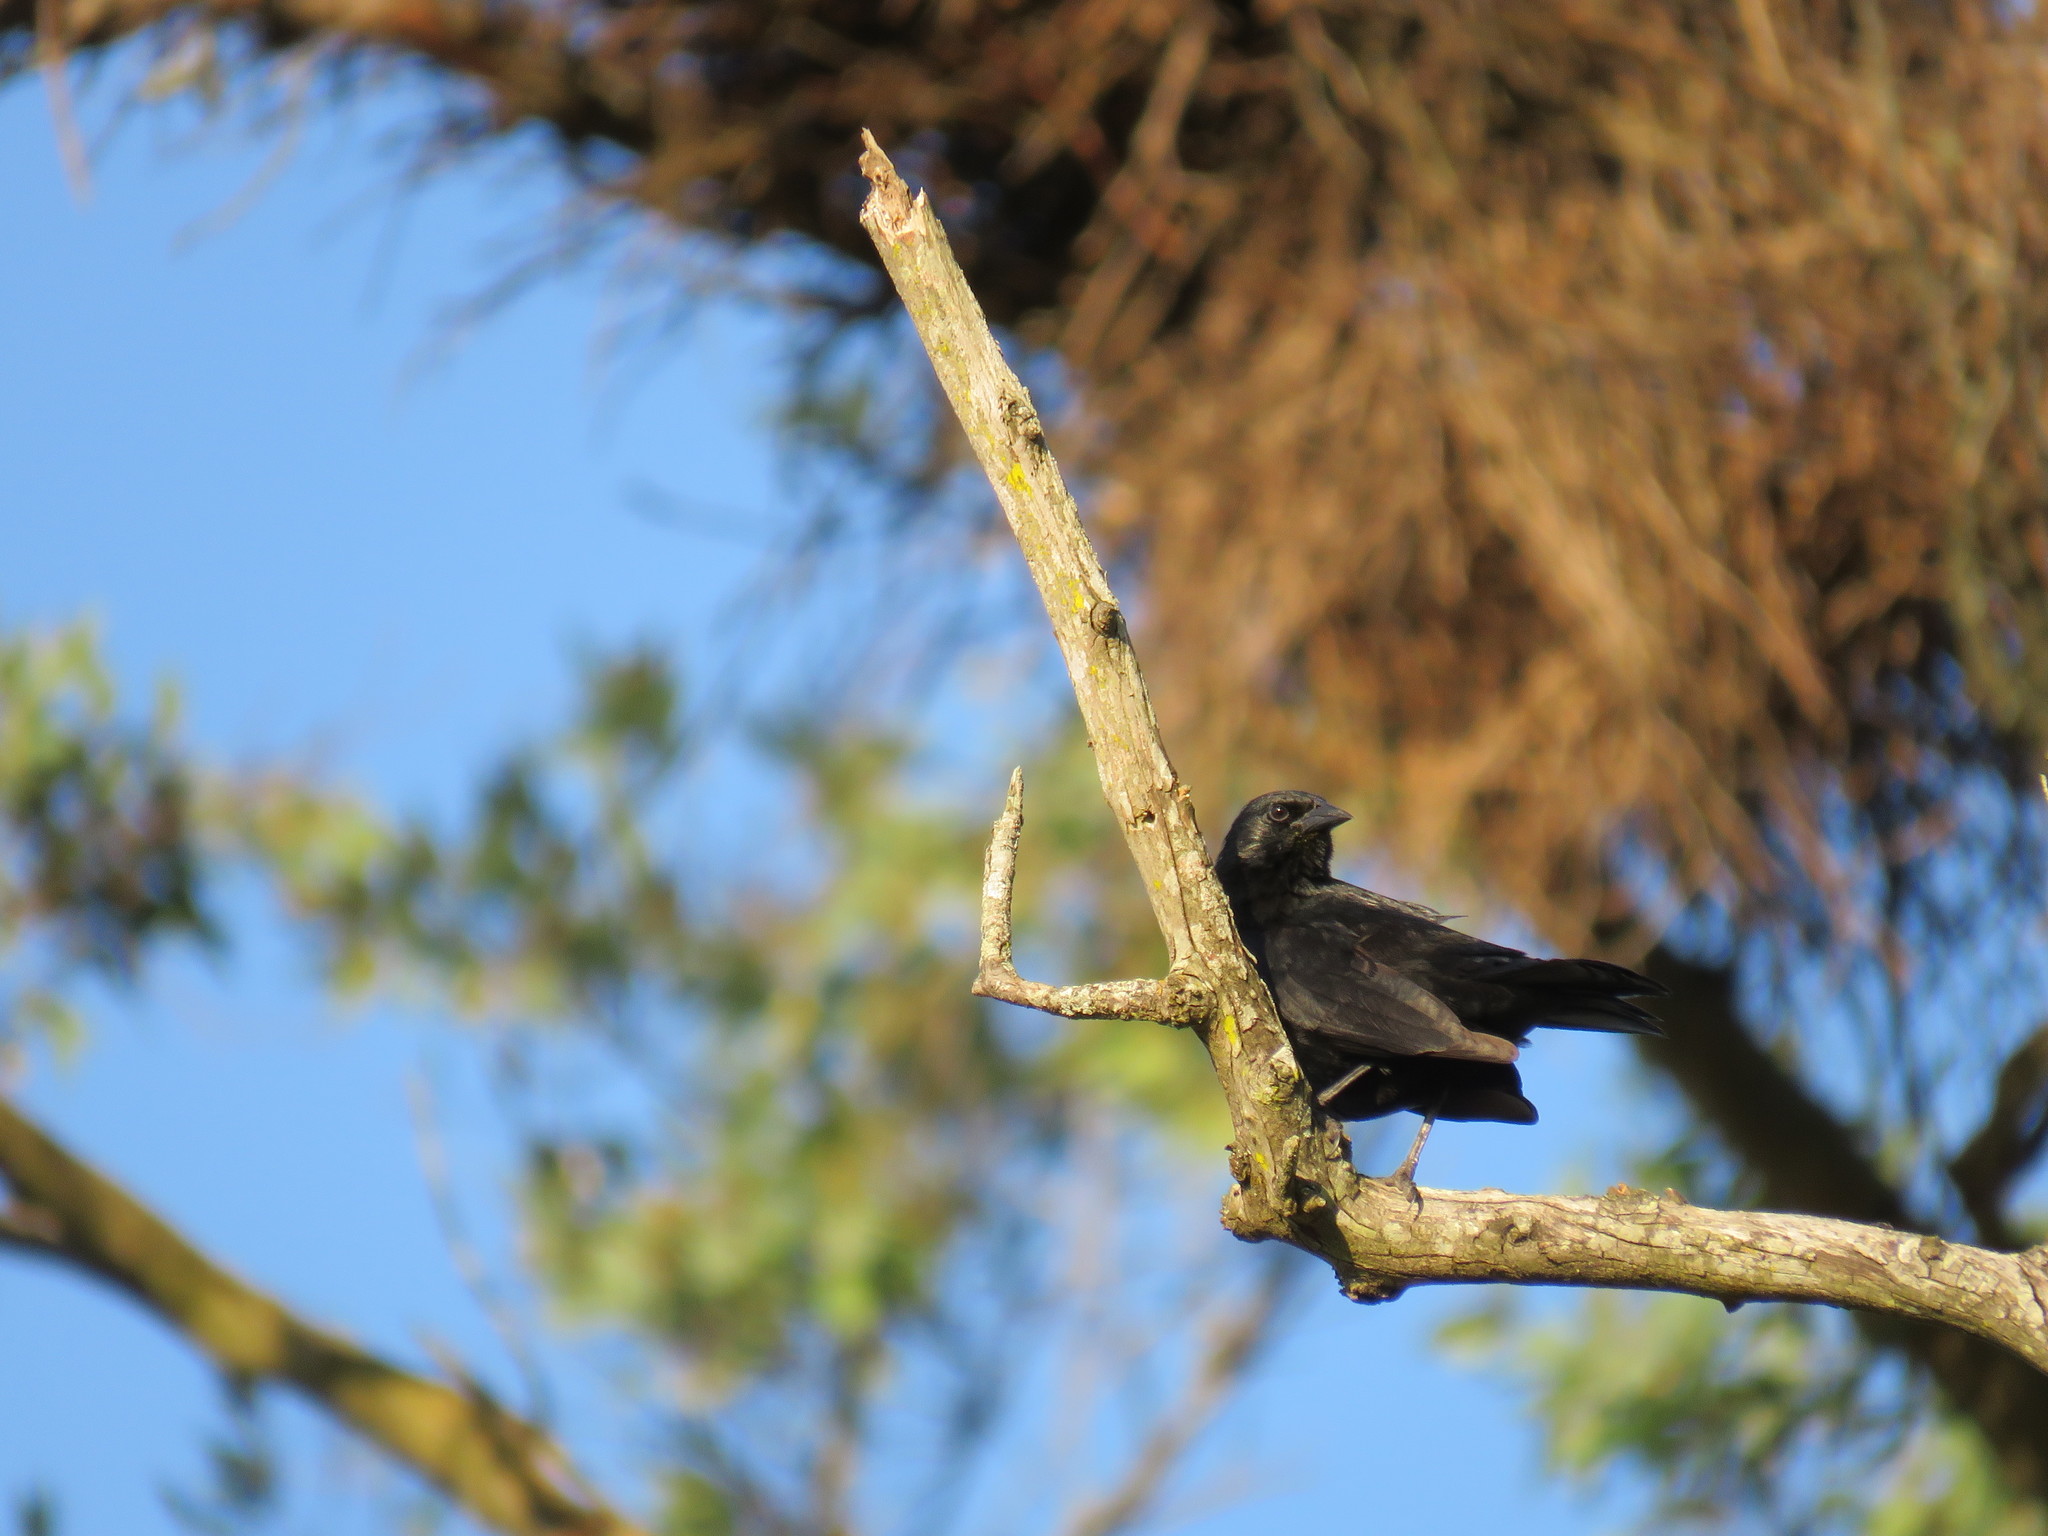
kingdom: Animalia
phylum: Chordata
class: Aves
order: Passeriformes
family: Icteridae
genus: Gnorimopsar
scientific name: Gnorimopsar chopi
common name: Chopi blackbird
